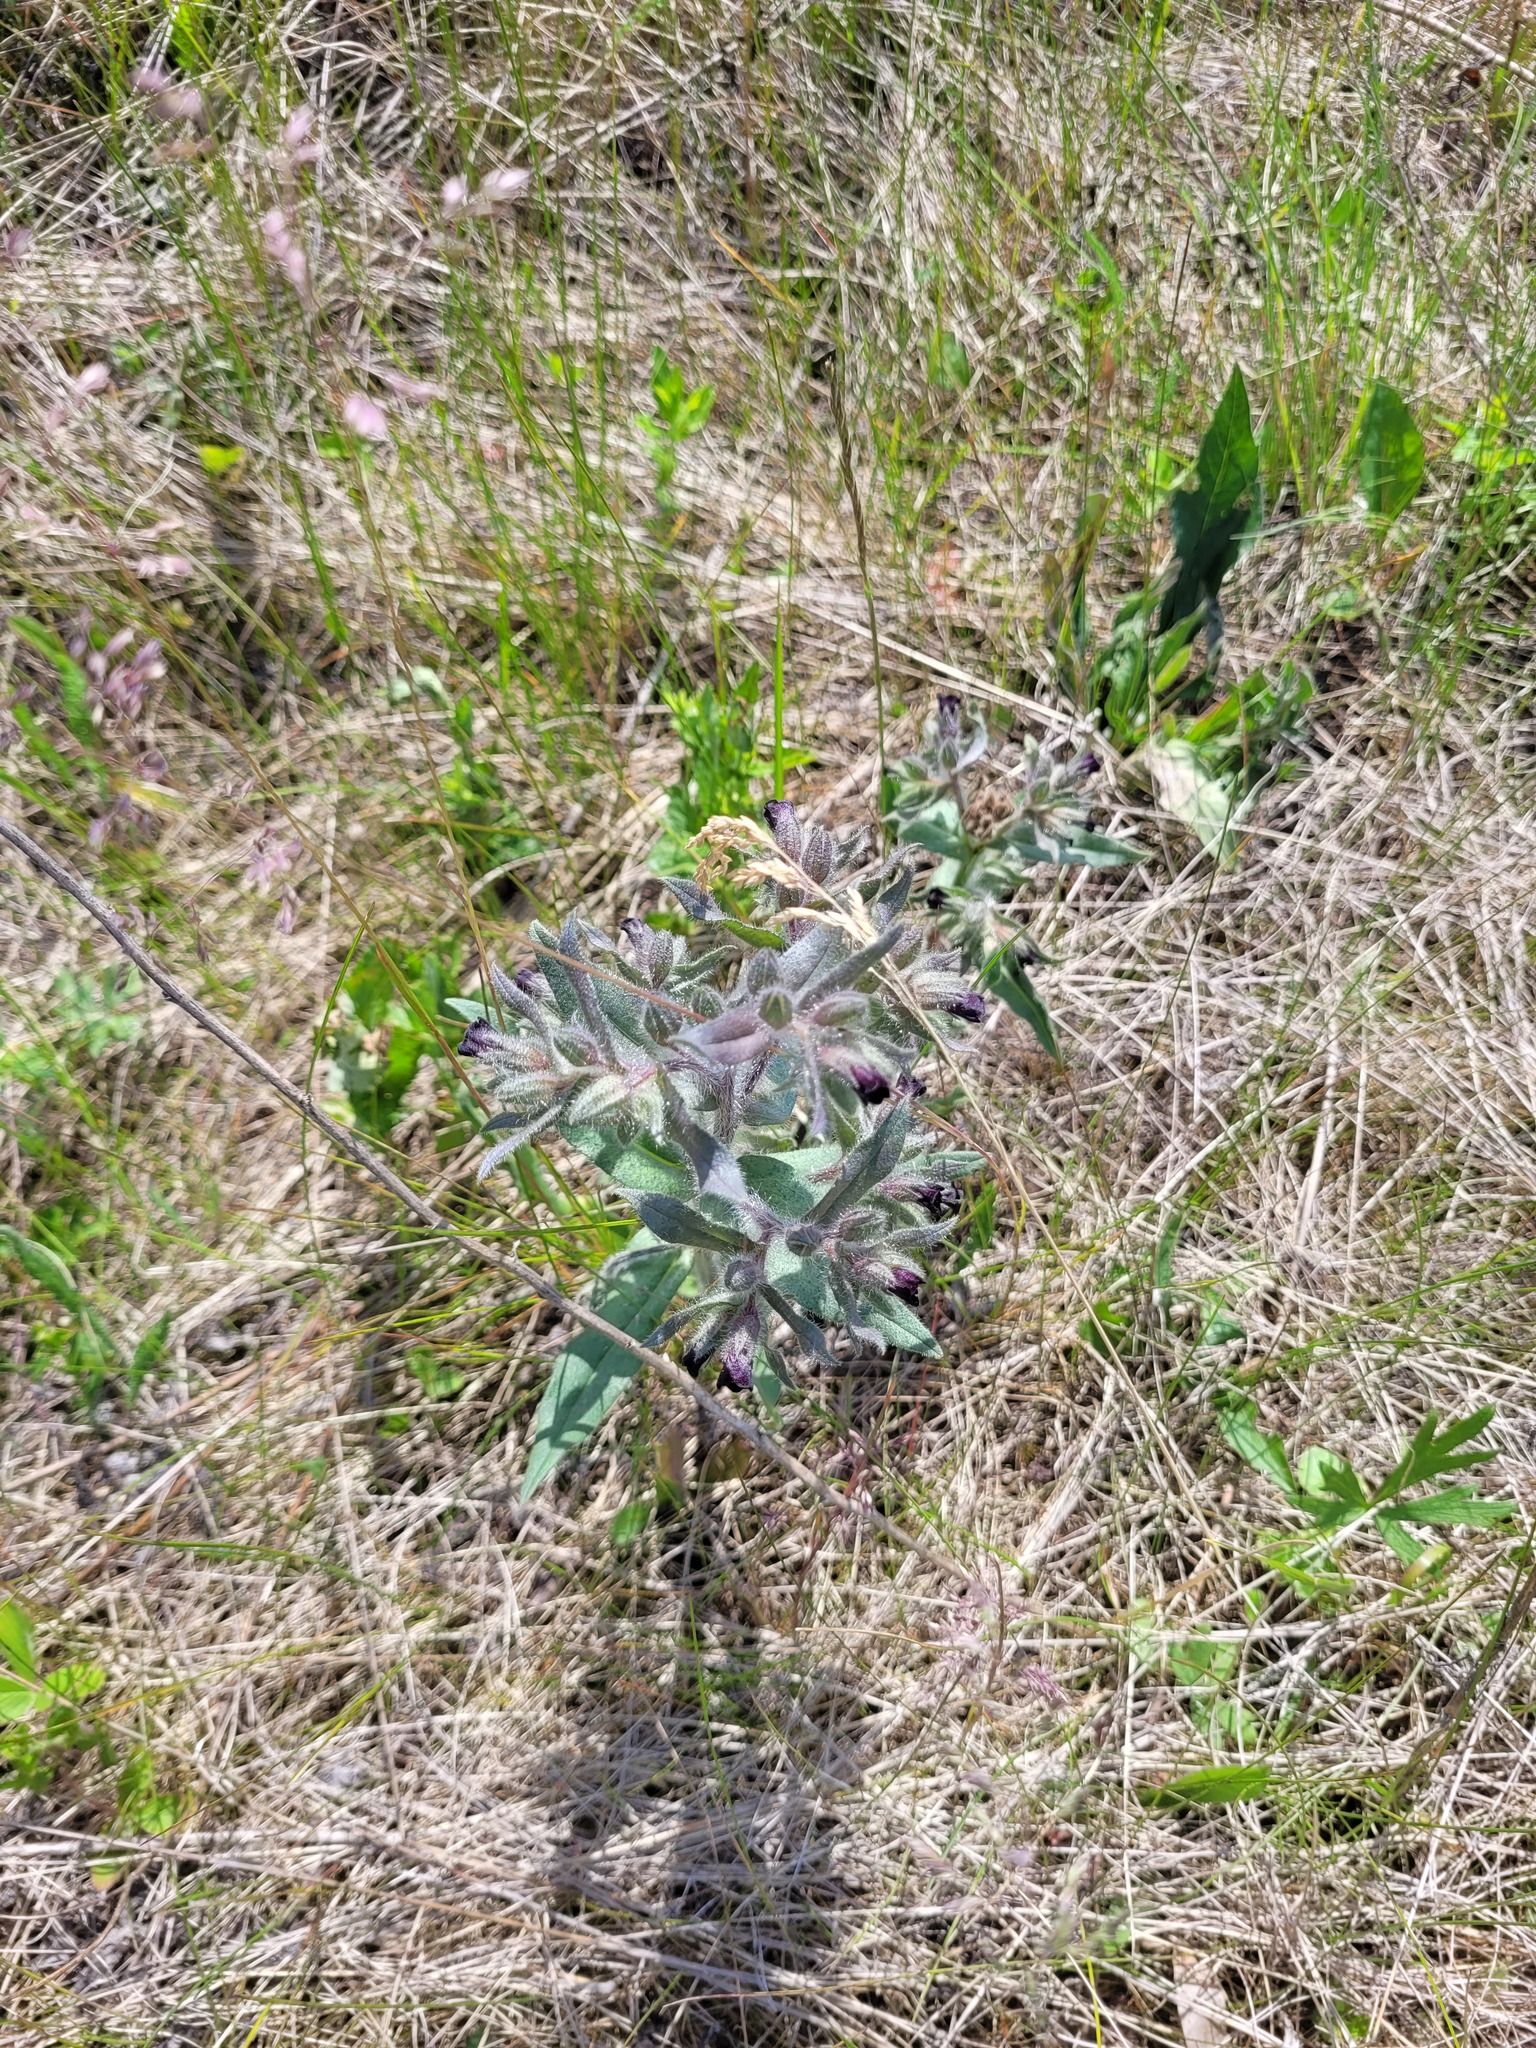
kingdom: Plantae
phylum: Tracheophyta
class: Magnoliopsida
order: Boraginales
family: Boraginaceae
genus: Nonea
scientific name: Nonea pulla
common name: Brown nonea
